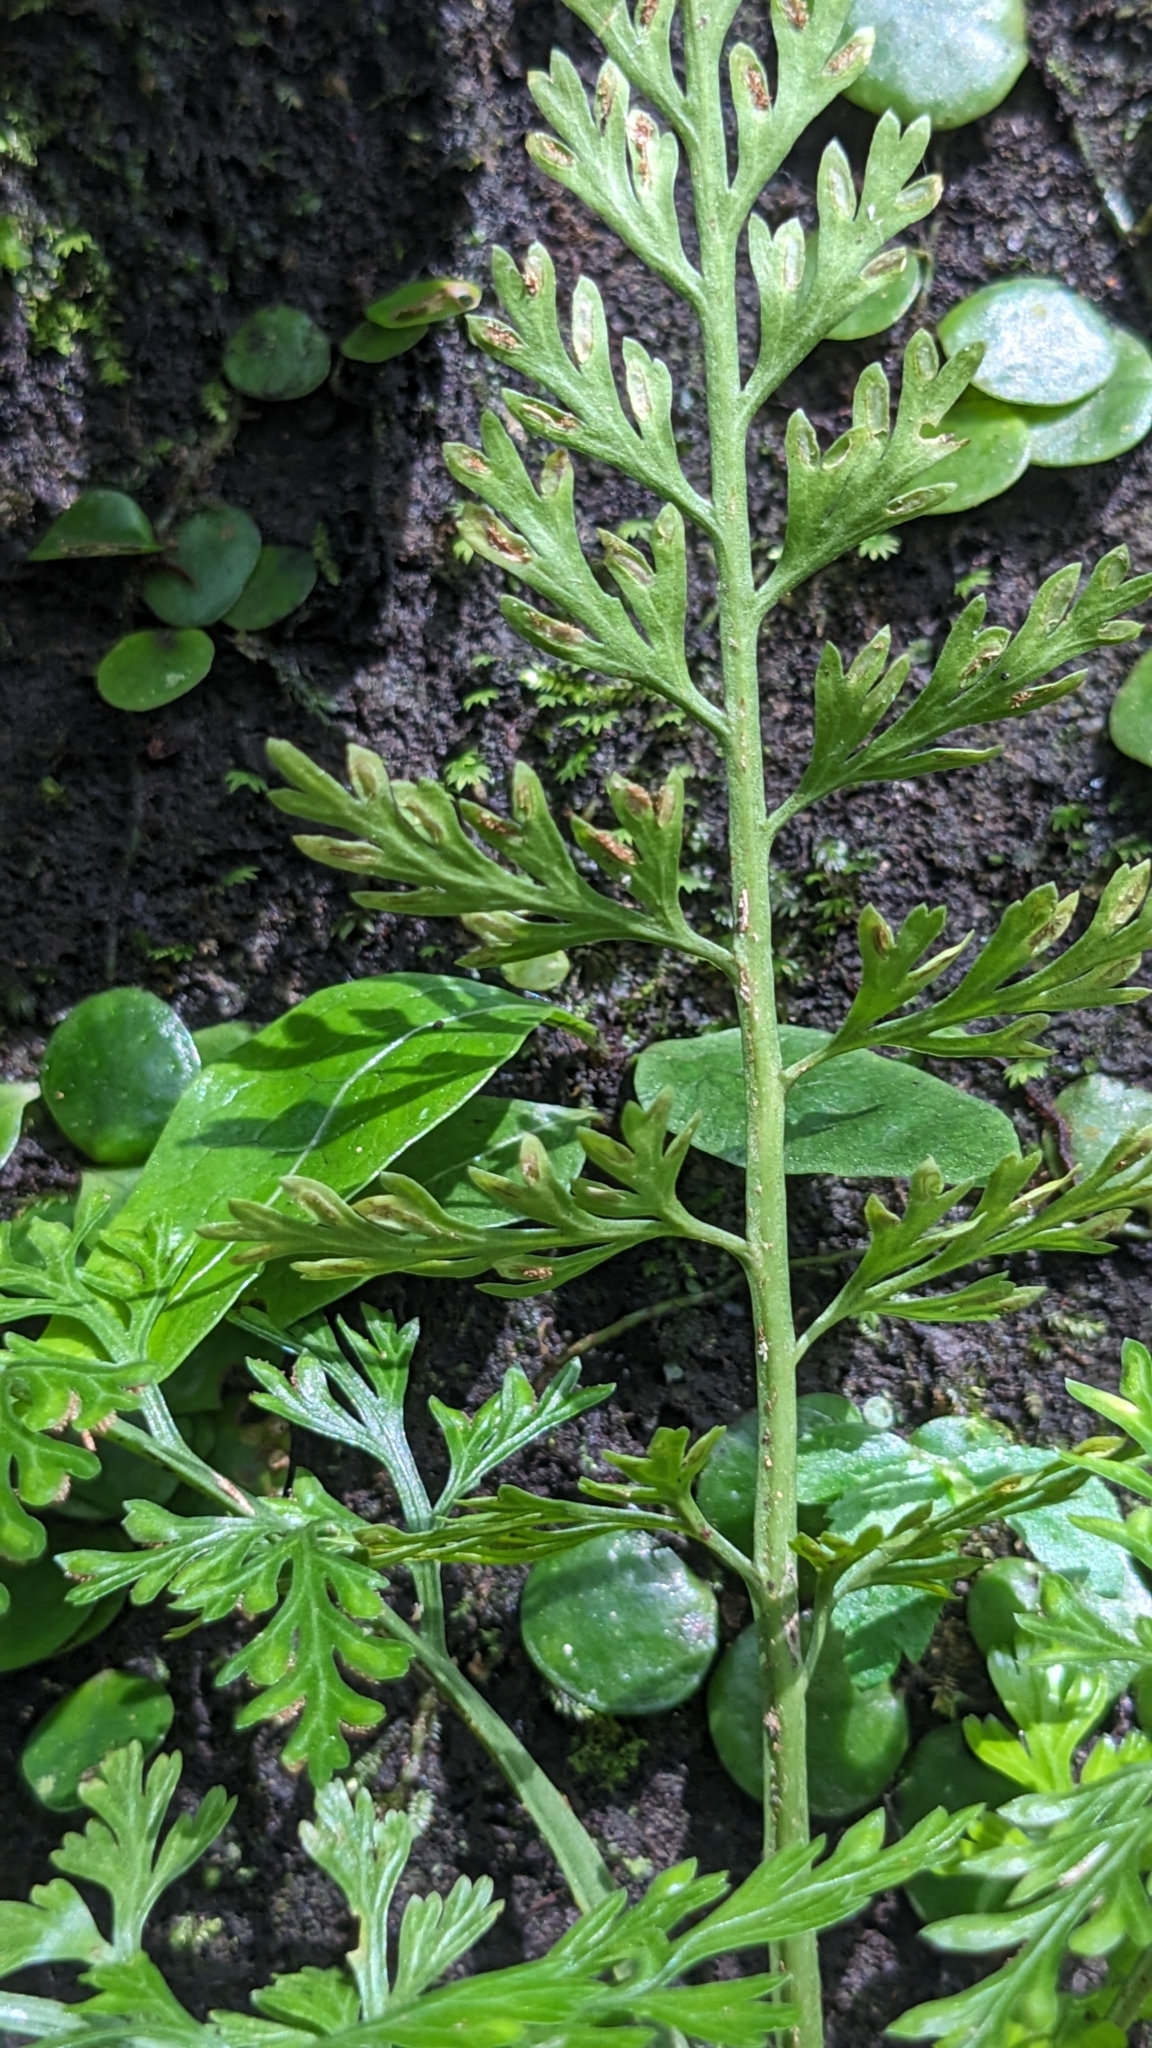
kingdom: Plantae
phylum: Tracheophyta
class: Polypodiopsida
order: Polypodiales
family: Aspleniaceae
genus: Asplenium
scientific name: Asplenium ritoense
